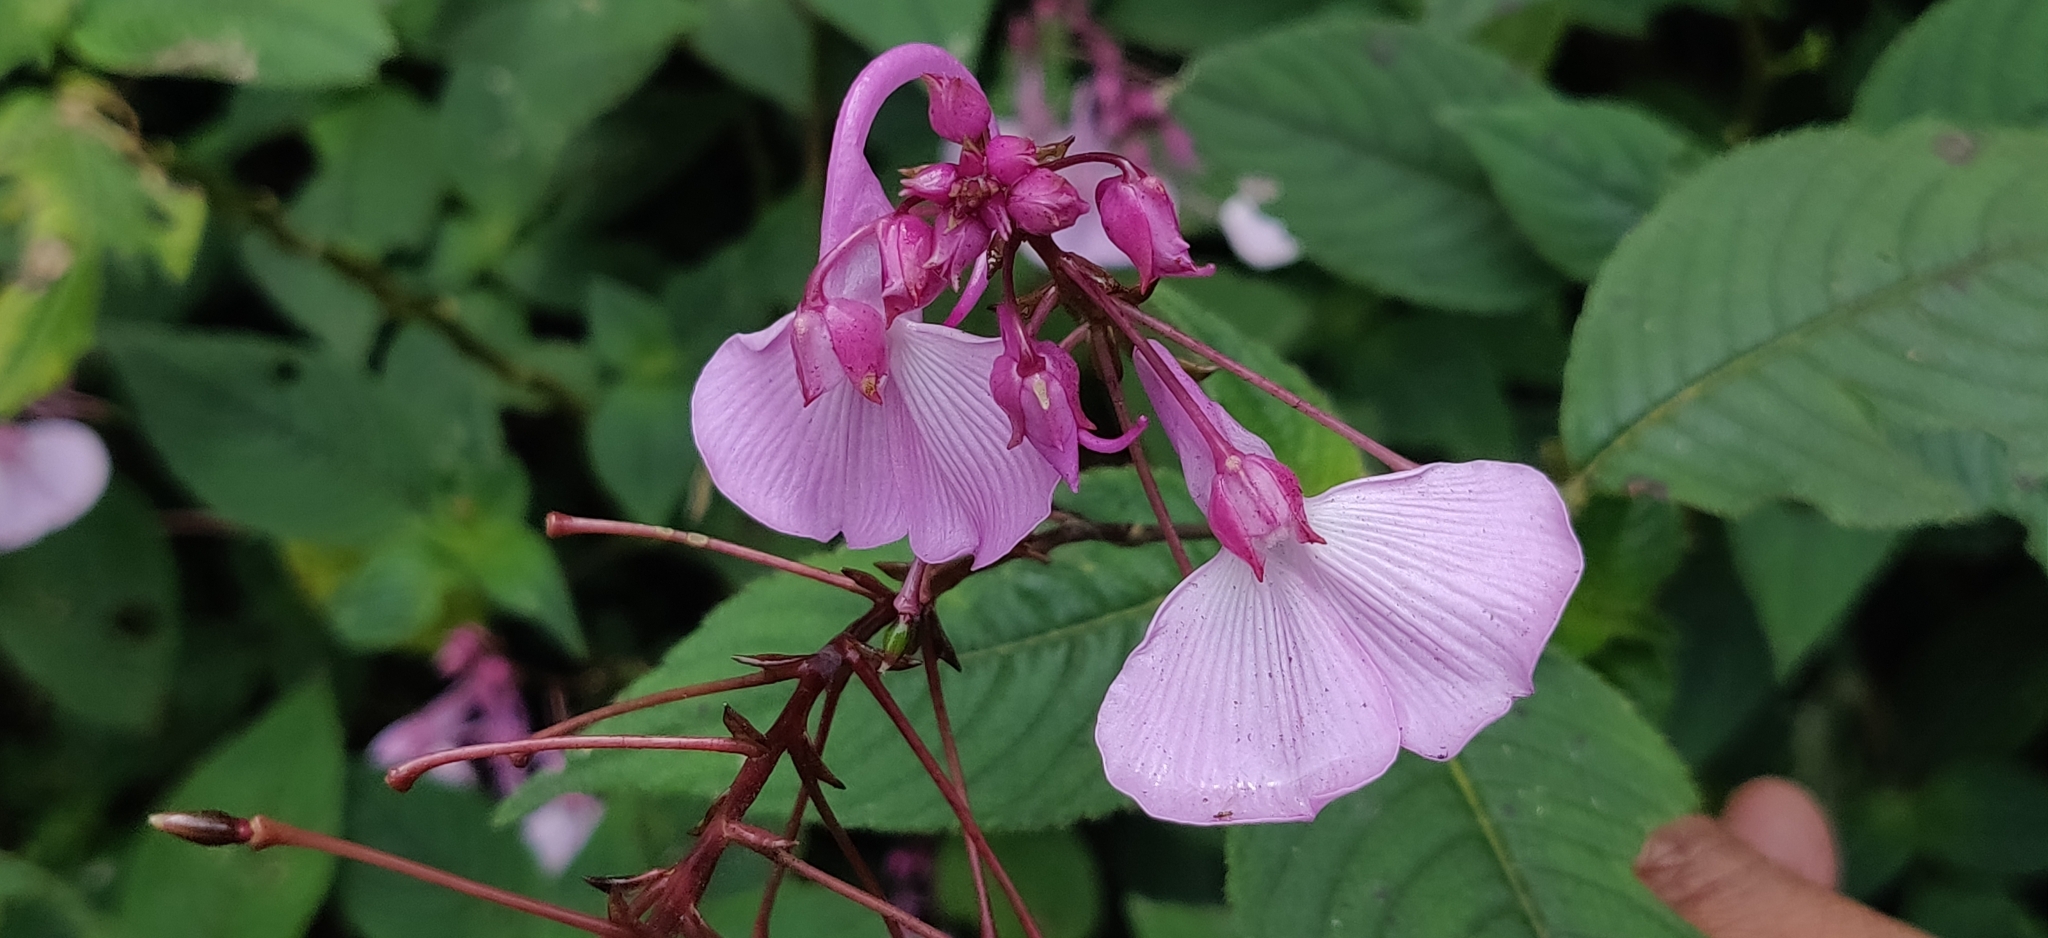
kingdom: Plantae
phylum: Tracheophyta
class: Magnoliopsida
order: Ericales
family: Balsaminaceae
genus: Impatiens
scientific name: Impatiens maculata
